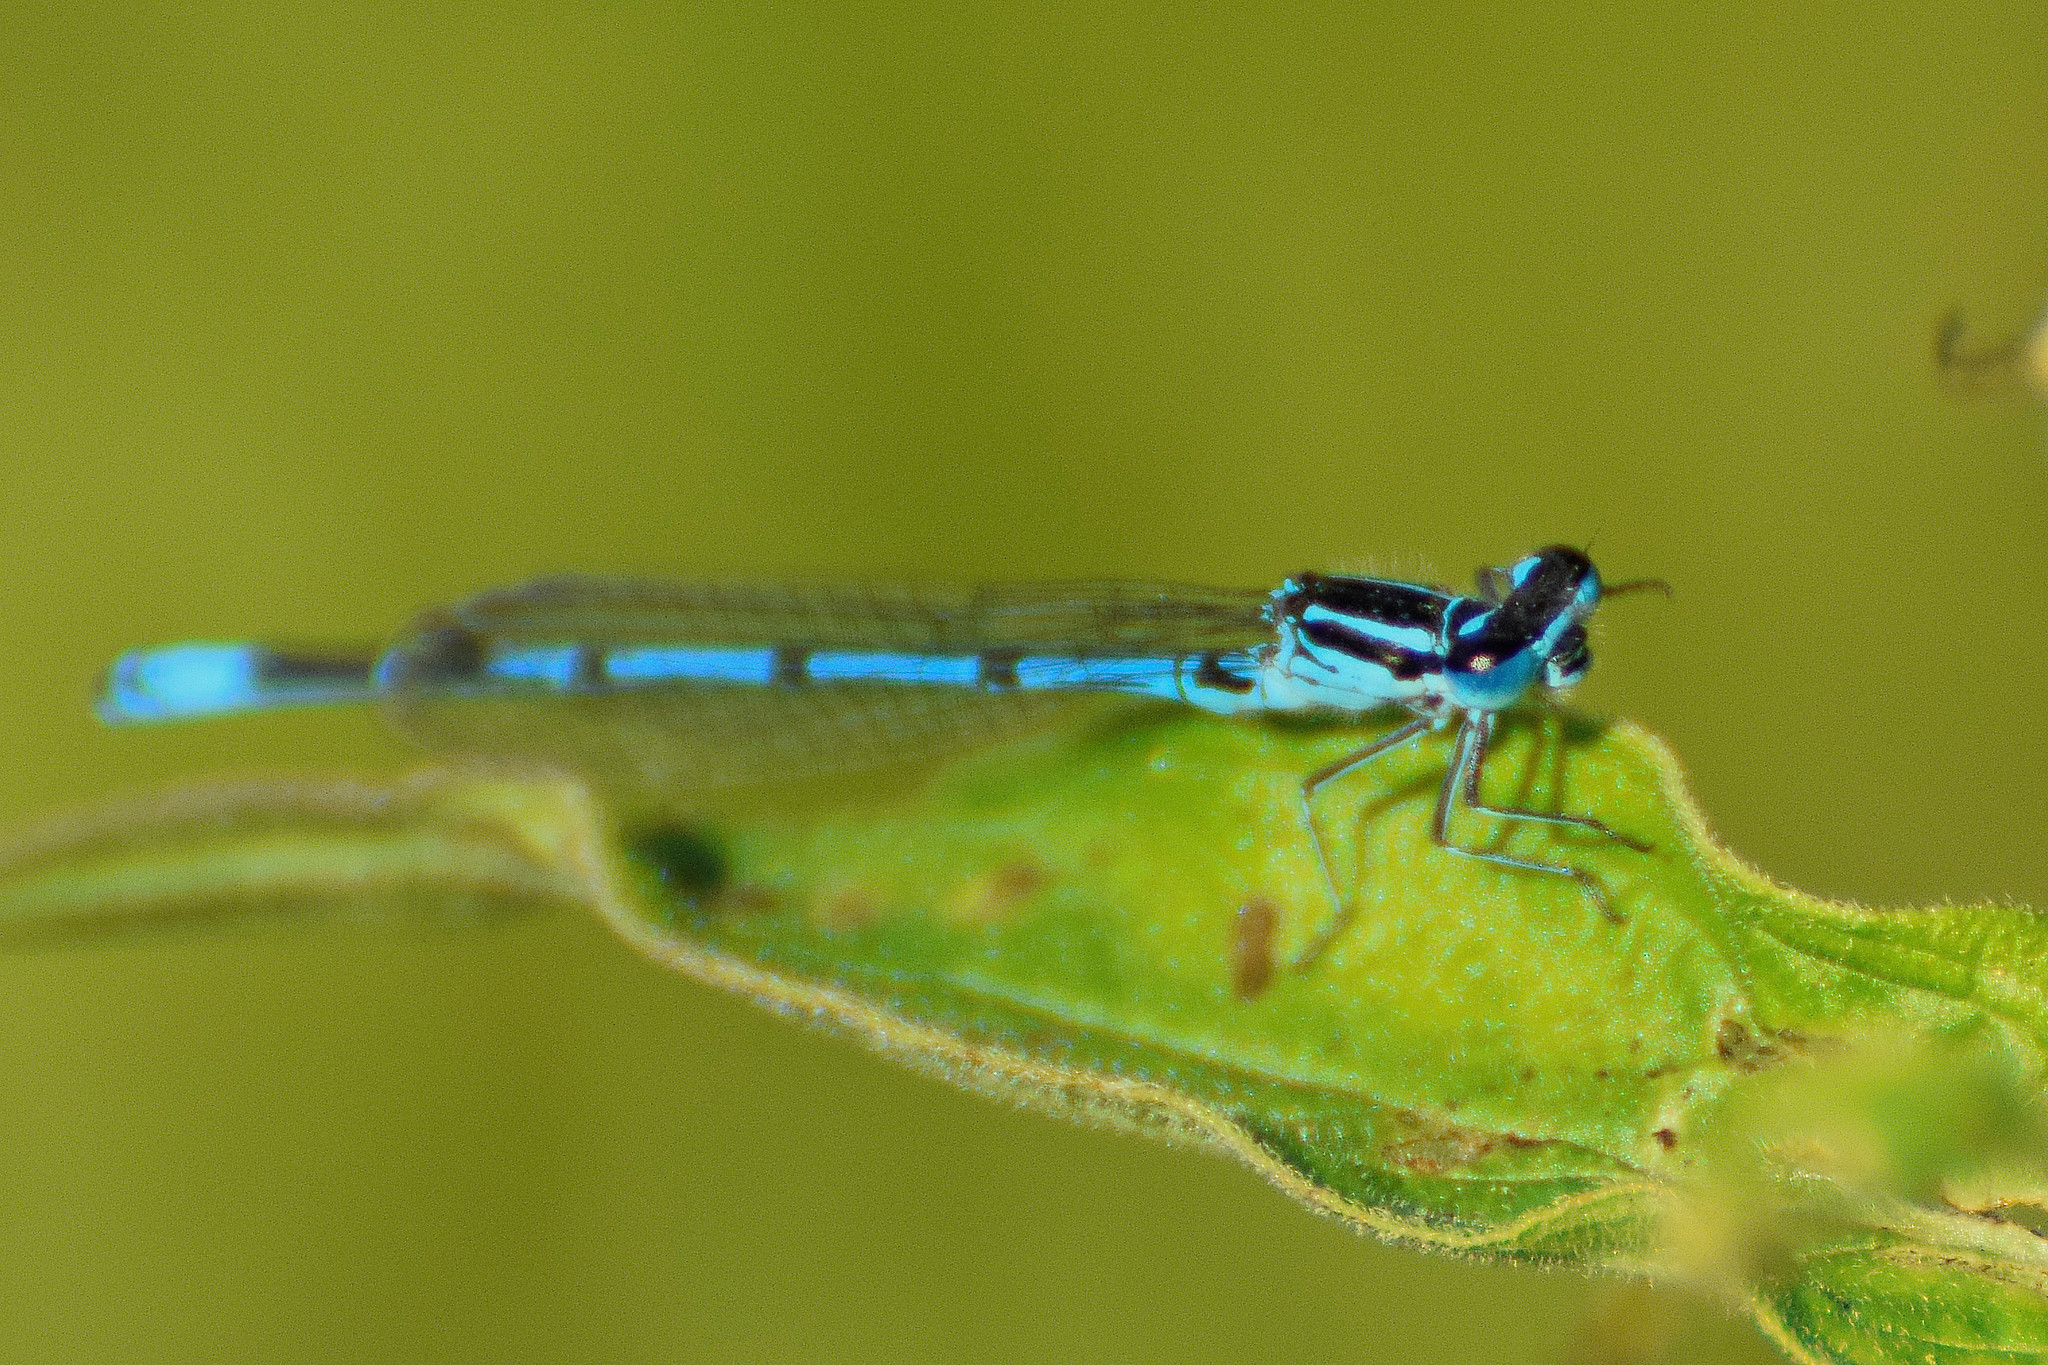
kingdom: Animalia
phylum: Arthropoda
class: Insecta
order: Odonata
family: Coenagrionidae
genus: Coenagrion
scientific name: Coenagrion puella
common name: Azure damselfly
